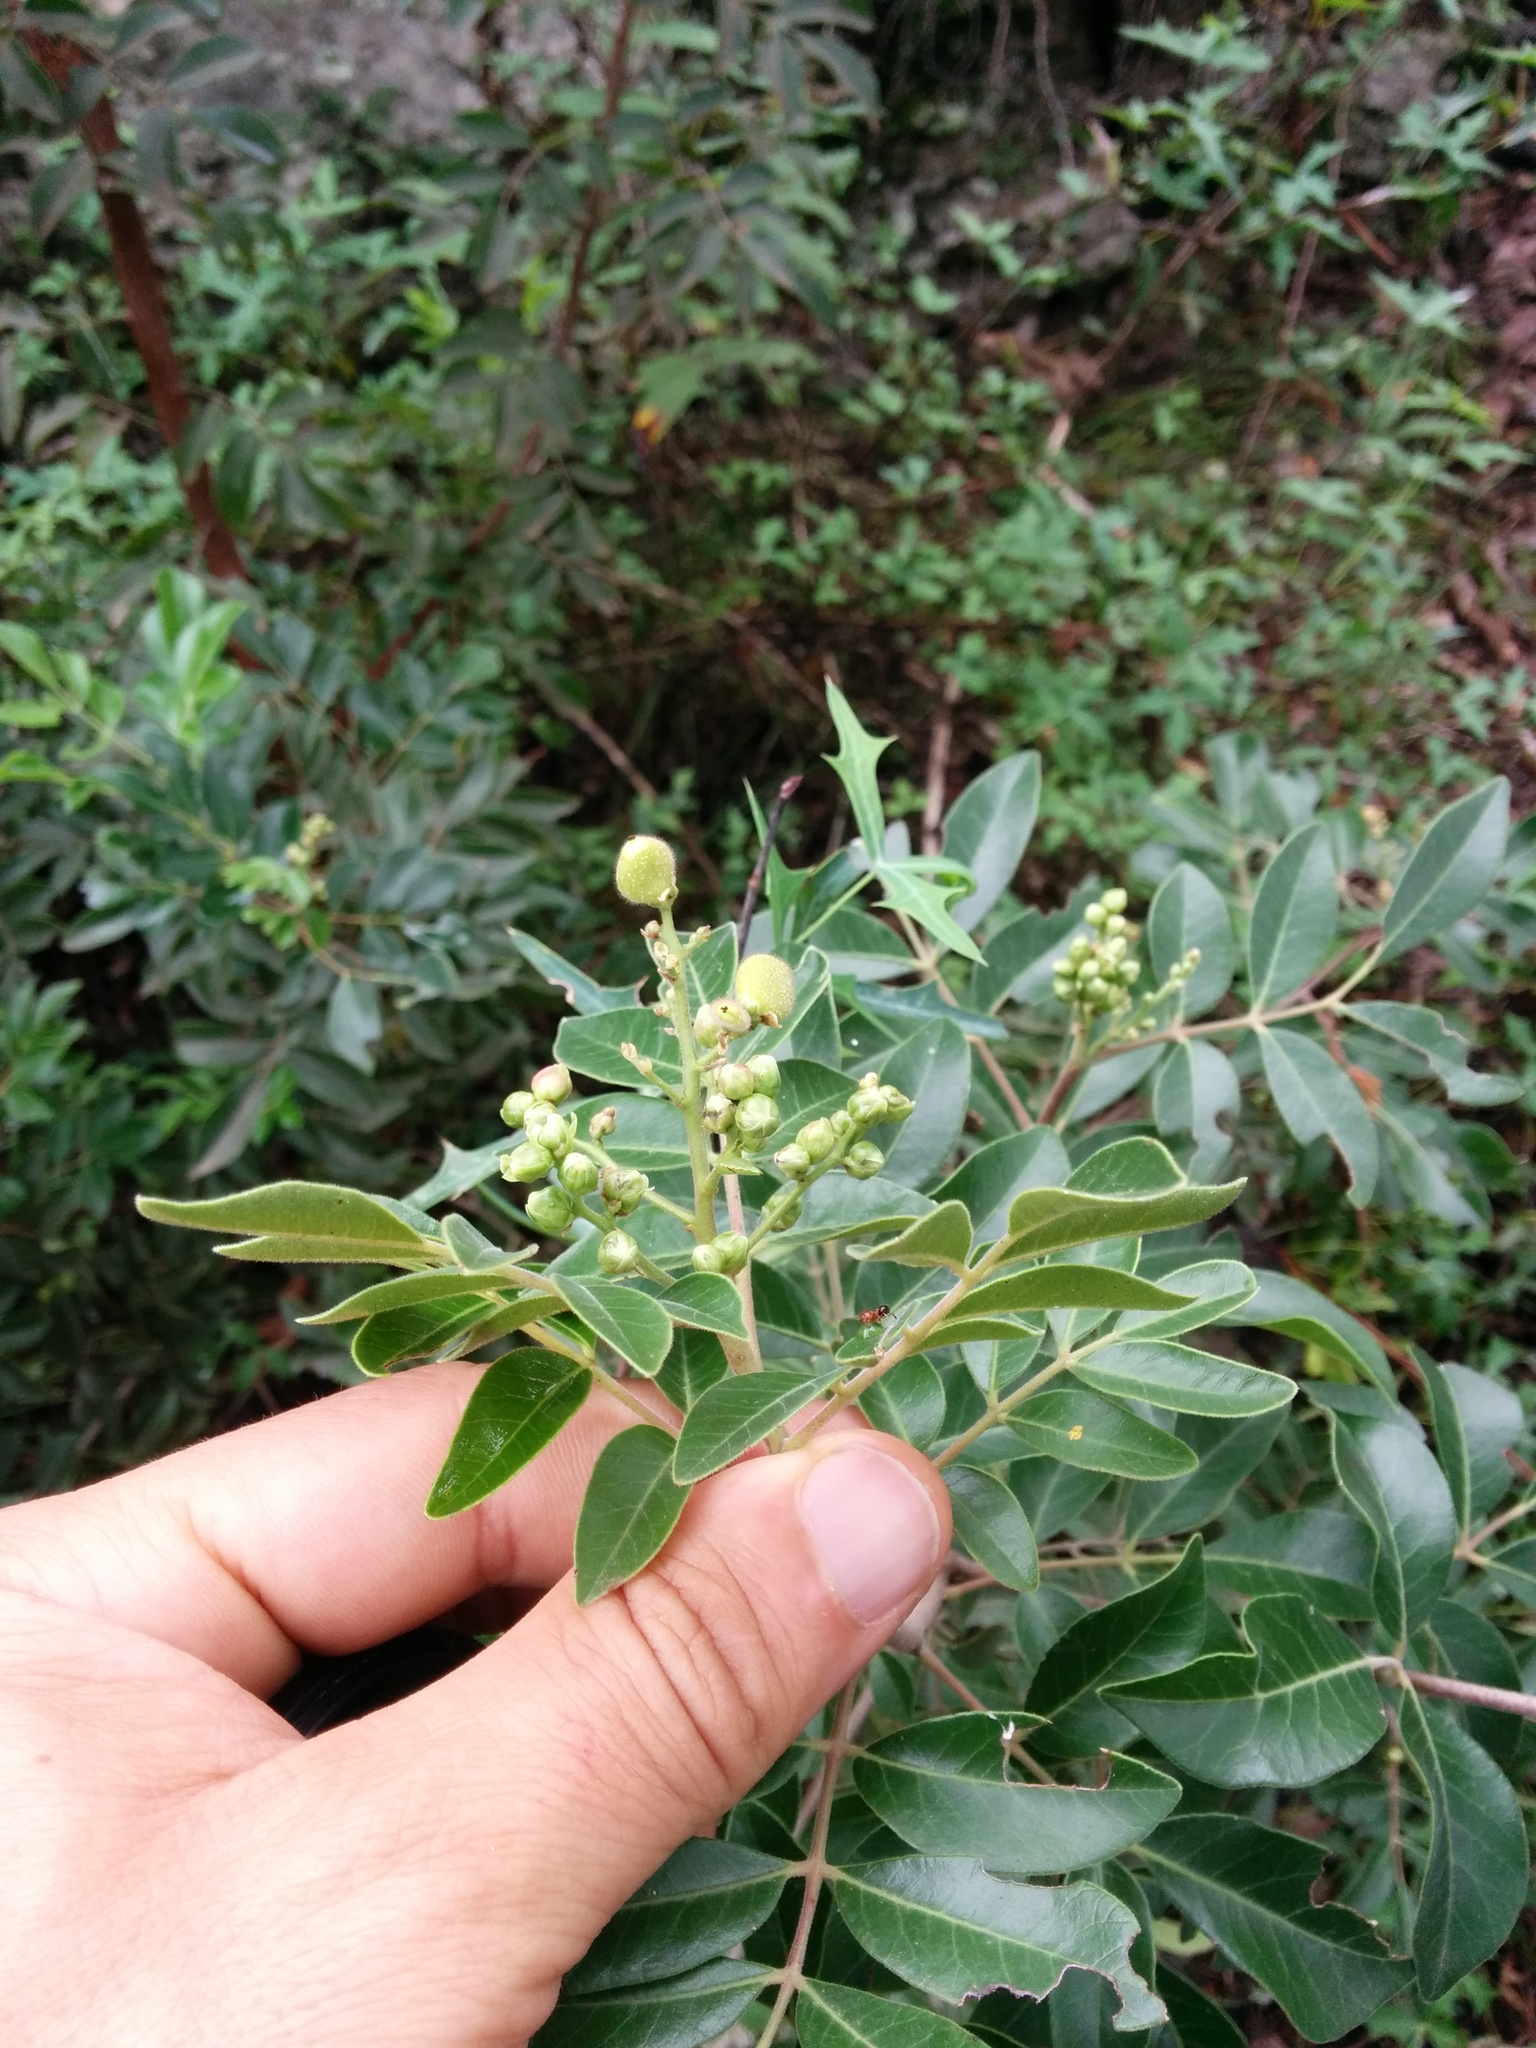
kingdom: Plantae
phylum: Tracheophyta
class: Magnoliopsida
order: Sapindales
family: Anacardiaceae
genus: Rhus
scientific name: Rhus virens
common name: Evergreen sumac
